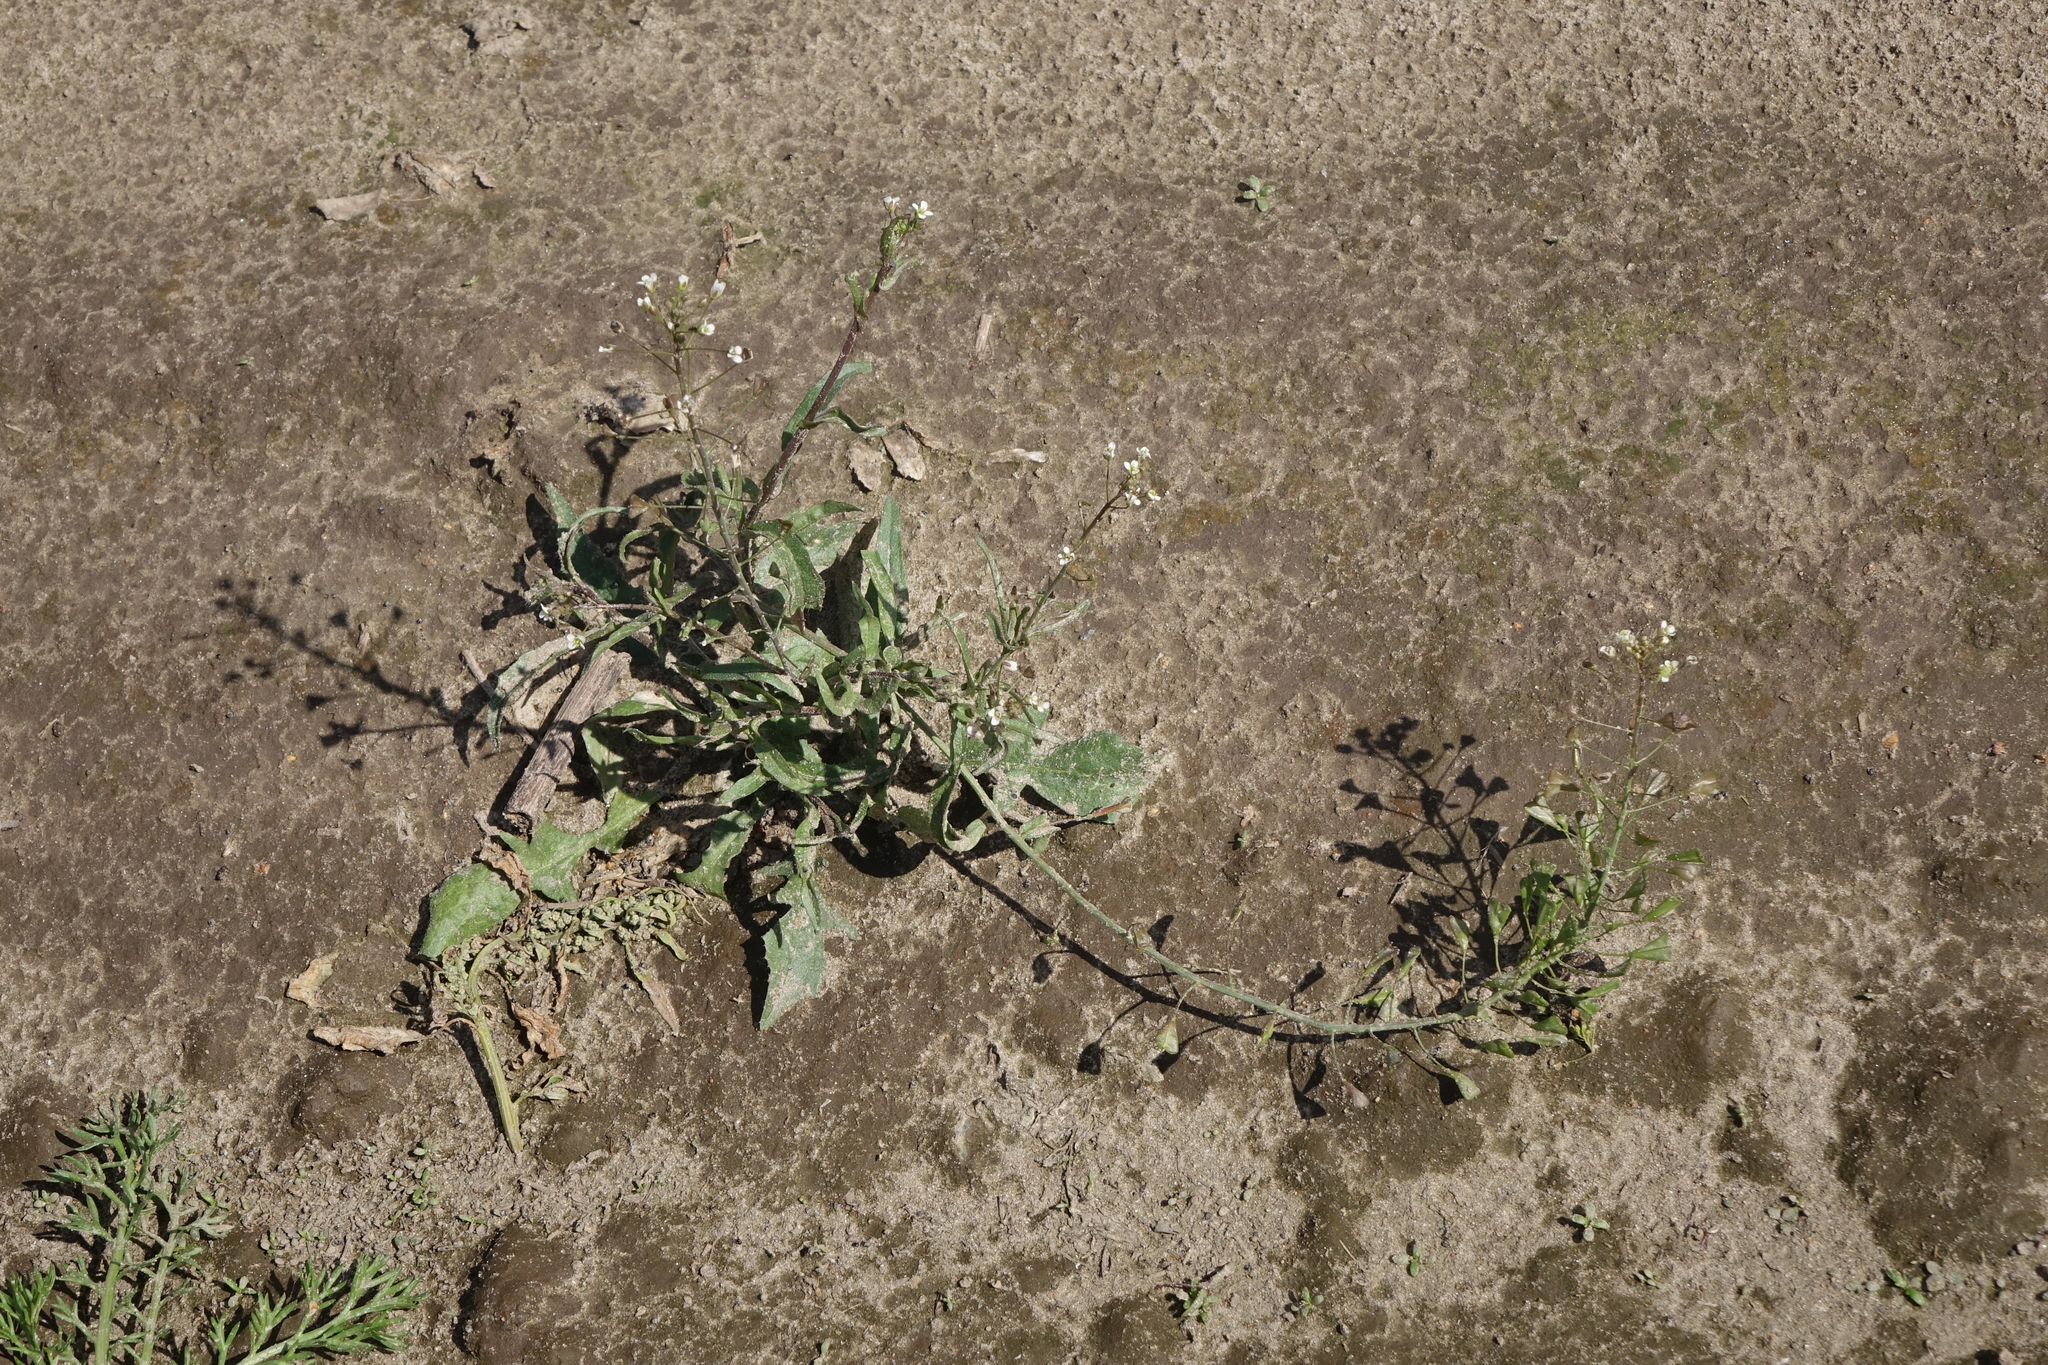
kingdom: Plantae
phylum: Tracheophyta
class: Magnoliopsida
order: Brassicales
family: Brassicaceae
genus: Capsella
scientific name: Capsella bursa-pastoris
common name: Shepherd's purse
